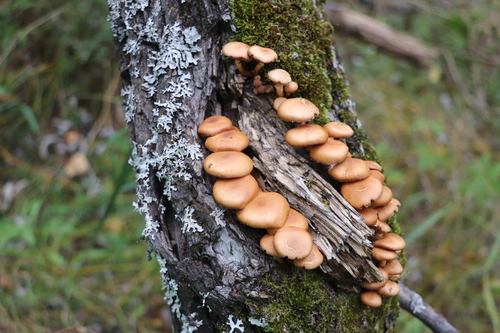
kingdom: Fungi
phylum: Basidiomycota
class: Agaricomycetes
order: Agaricales
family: Strophariaceae
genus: Kuehneromyces
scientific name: Kuehneromyces mutabilis
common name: Sheathed woodtuft
